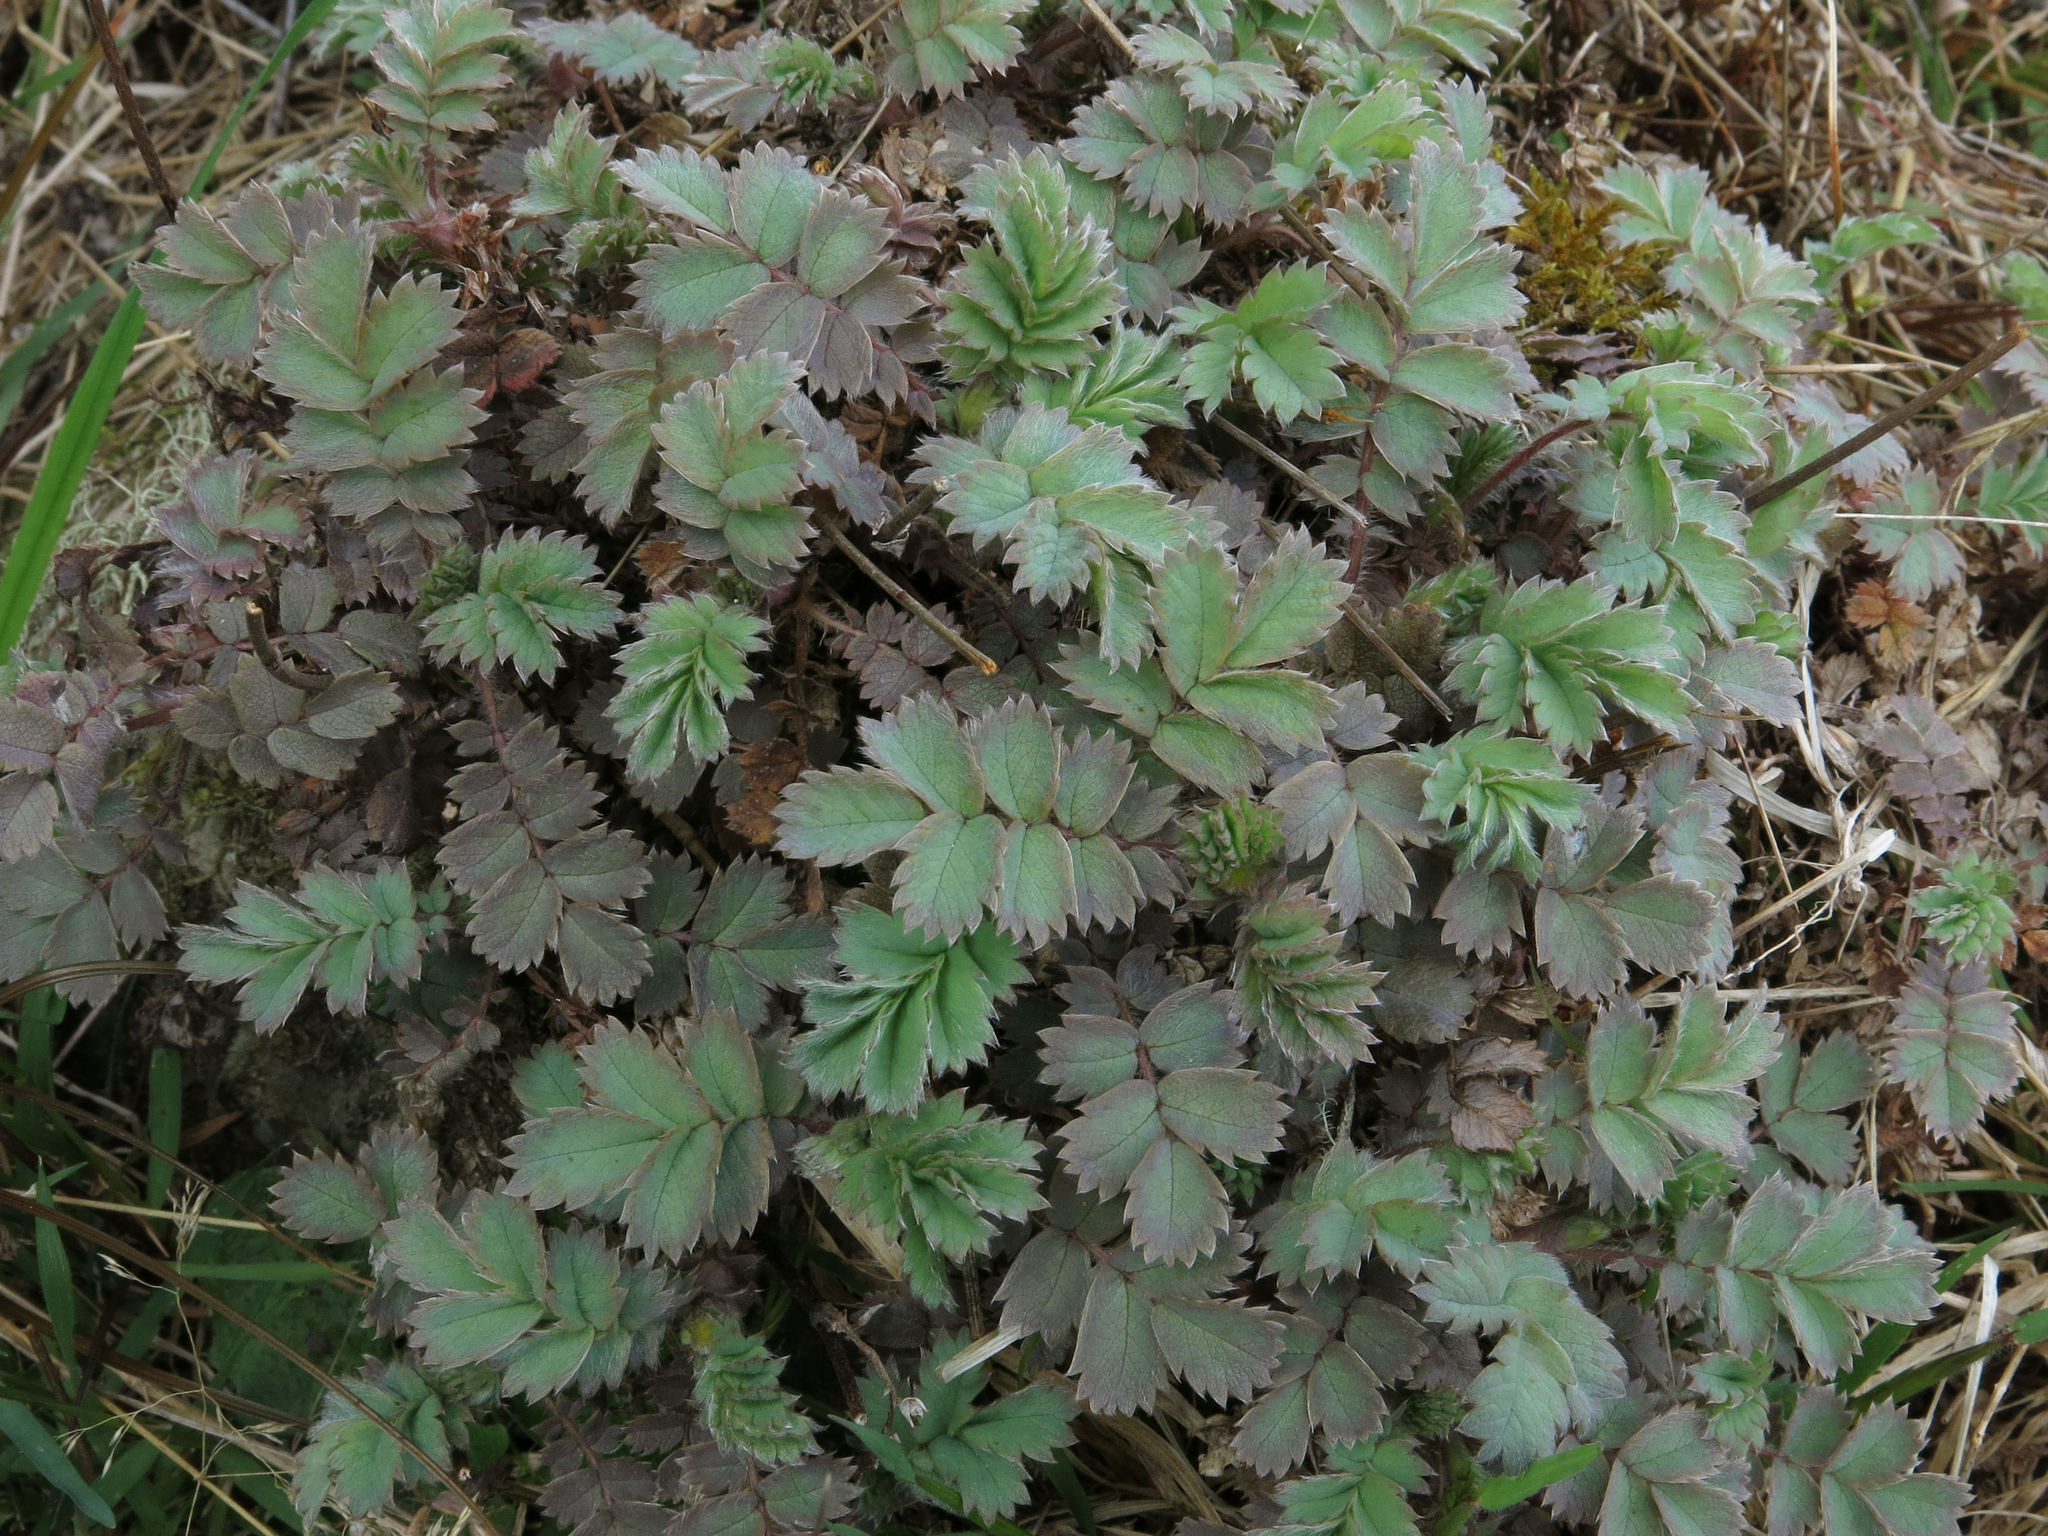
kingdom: Plantae
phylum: Tracheophyta
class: Magnoliopsida
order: Rosales
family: Rosaceae
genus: Acaena
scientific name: Acaena caesiiglauca
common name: Glaucous pirri-pirri-bur
